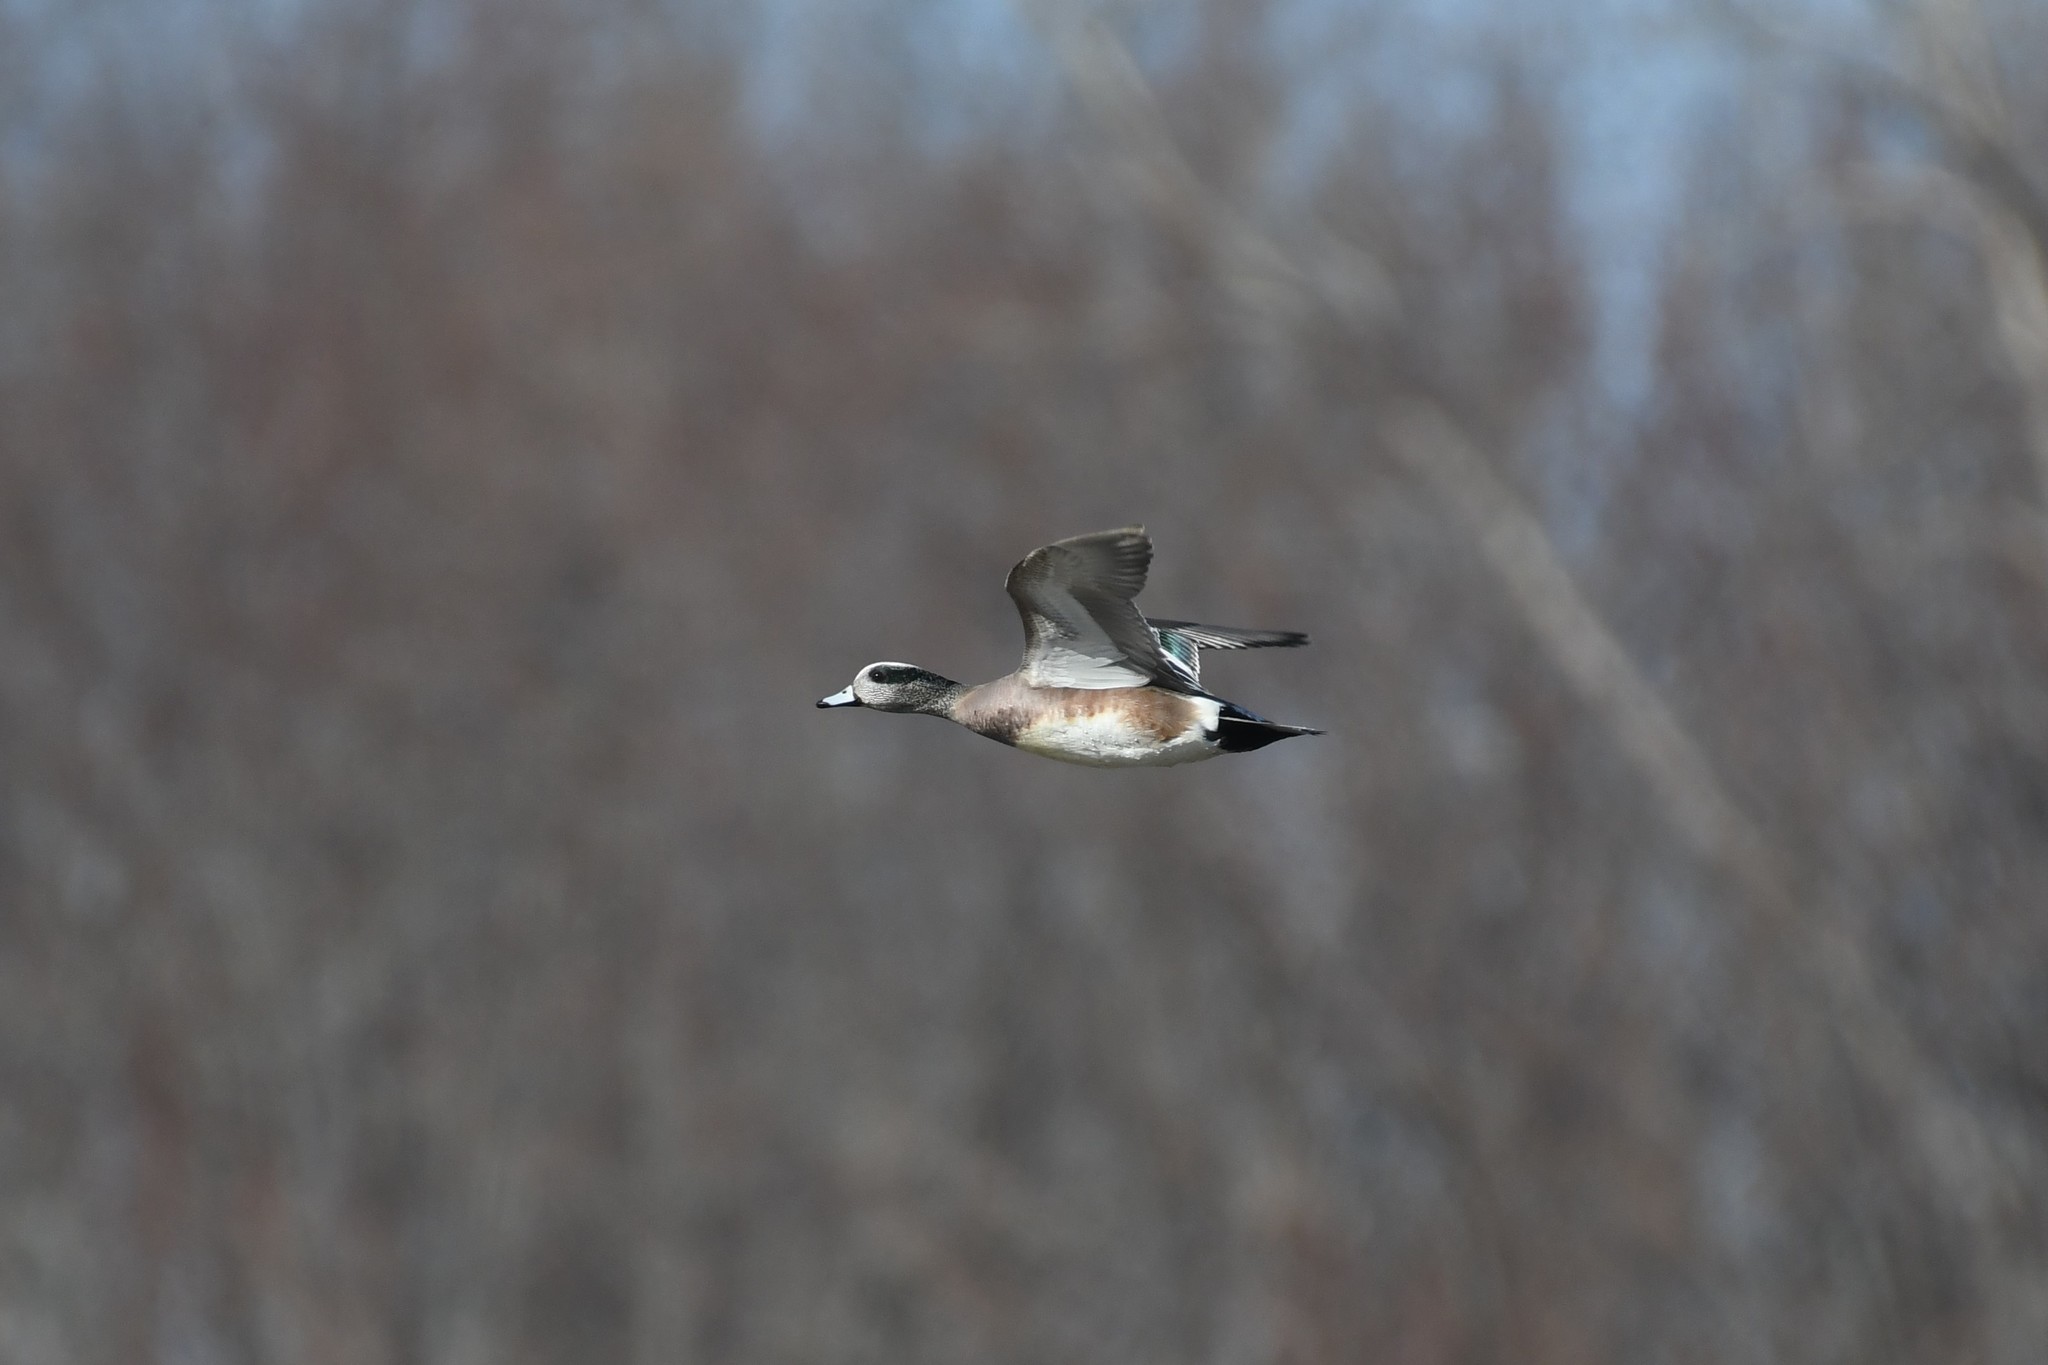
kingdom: Animalia
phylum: Chordata
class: Aves
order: Anseriformes
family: Anatidae
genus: Mareca
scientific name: Mareca americana
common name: American wigeon
